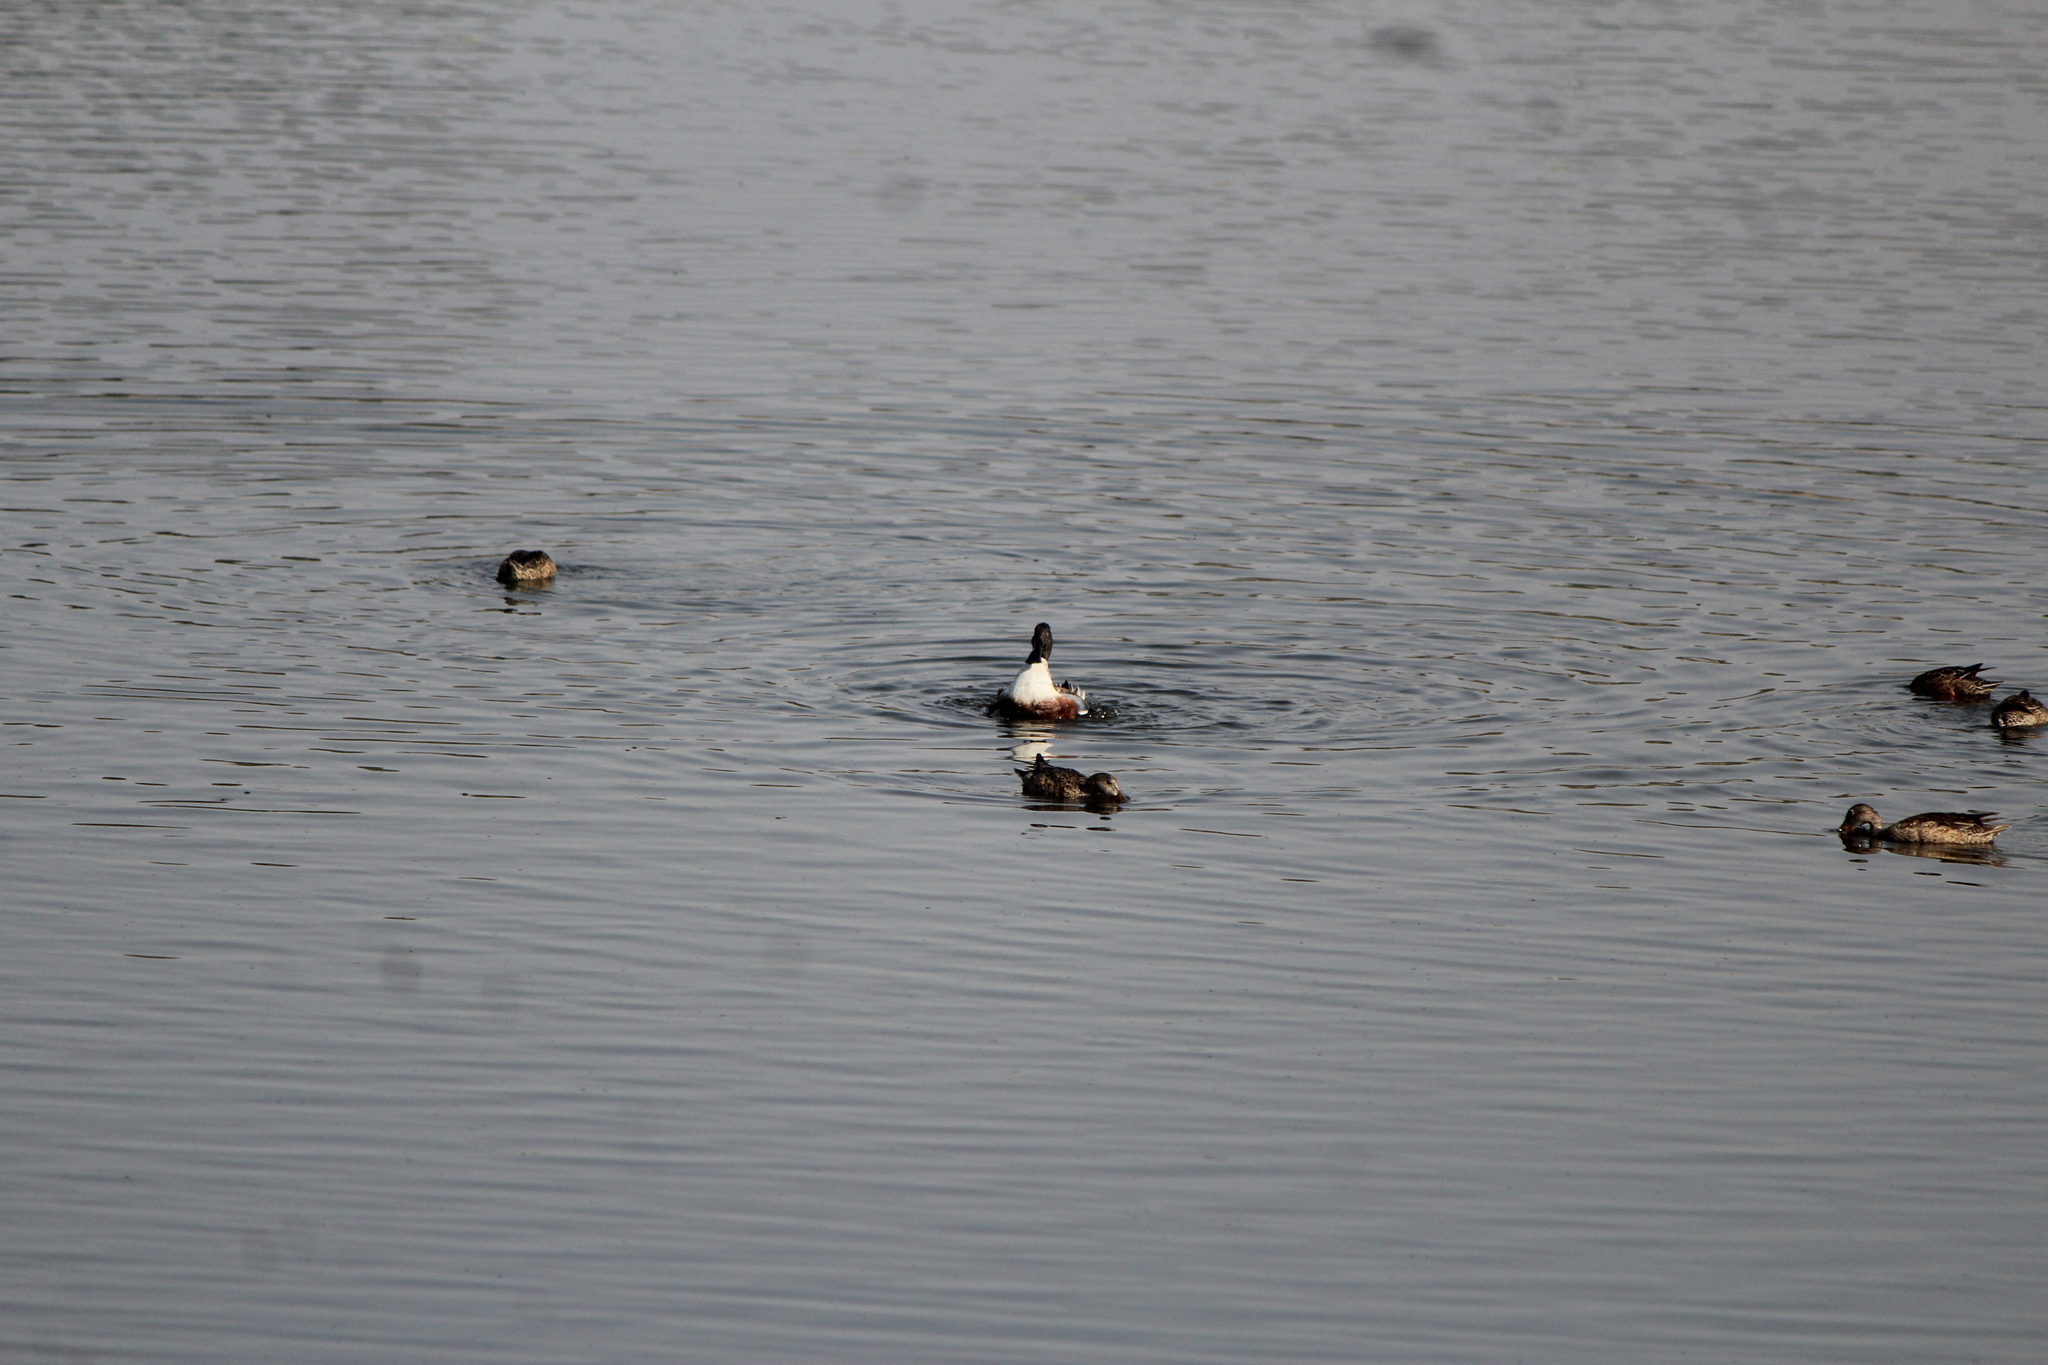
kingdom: Animalia
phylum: Chordata
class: Aves
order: Anseriformes
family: Anatidae
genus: Spatula
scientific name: Spatula clypeata
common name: Northern shoveler
